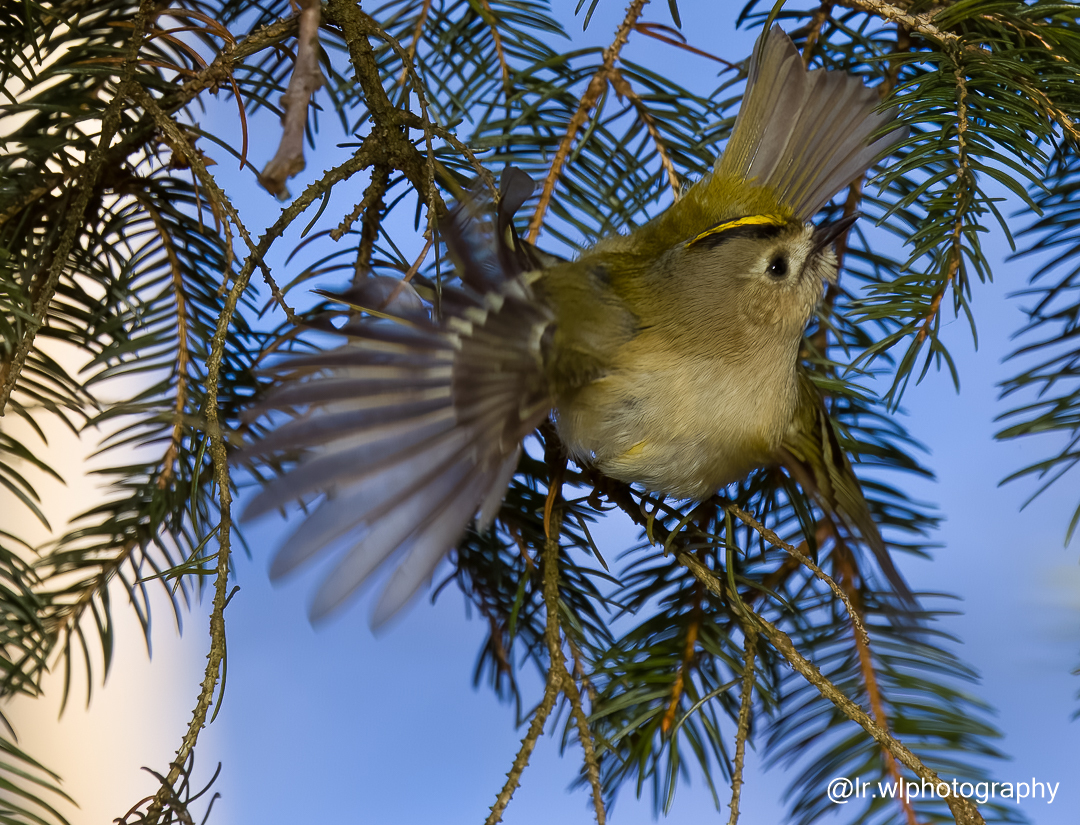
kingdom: Animalia
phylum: Chordata
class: Aves
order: Passeriformes
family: Regulidae
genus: Regulus
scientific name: Regulus regulus
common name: Goldcrest
